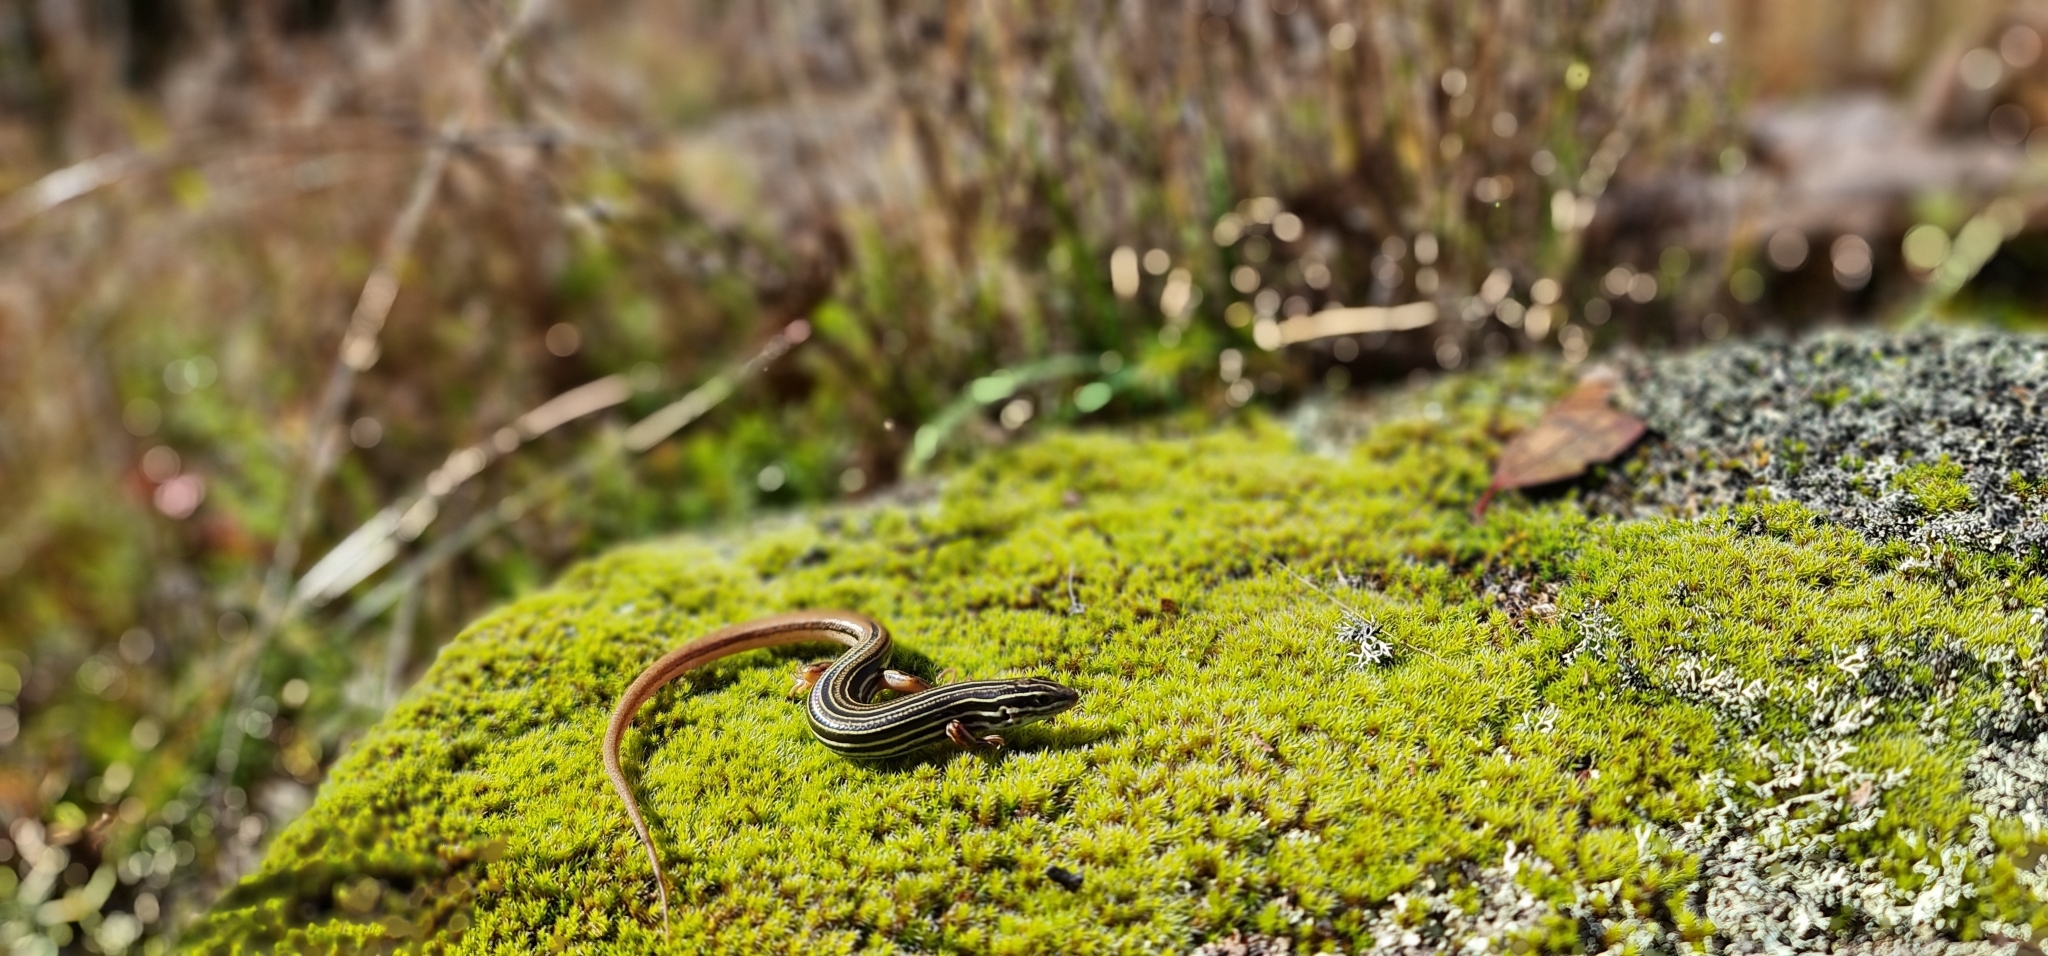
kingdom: Animalia
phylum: Chordata
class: Squamata
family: Scincidae
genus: Ctenotus
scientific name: Ctenotus taeniolatus
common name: Copper-tailed skink
